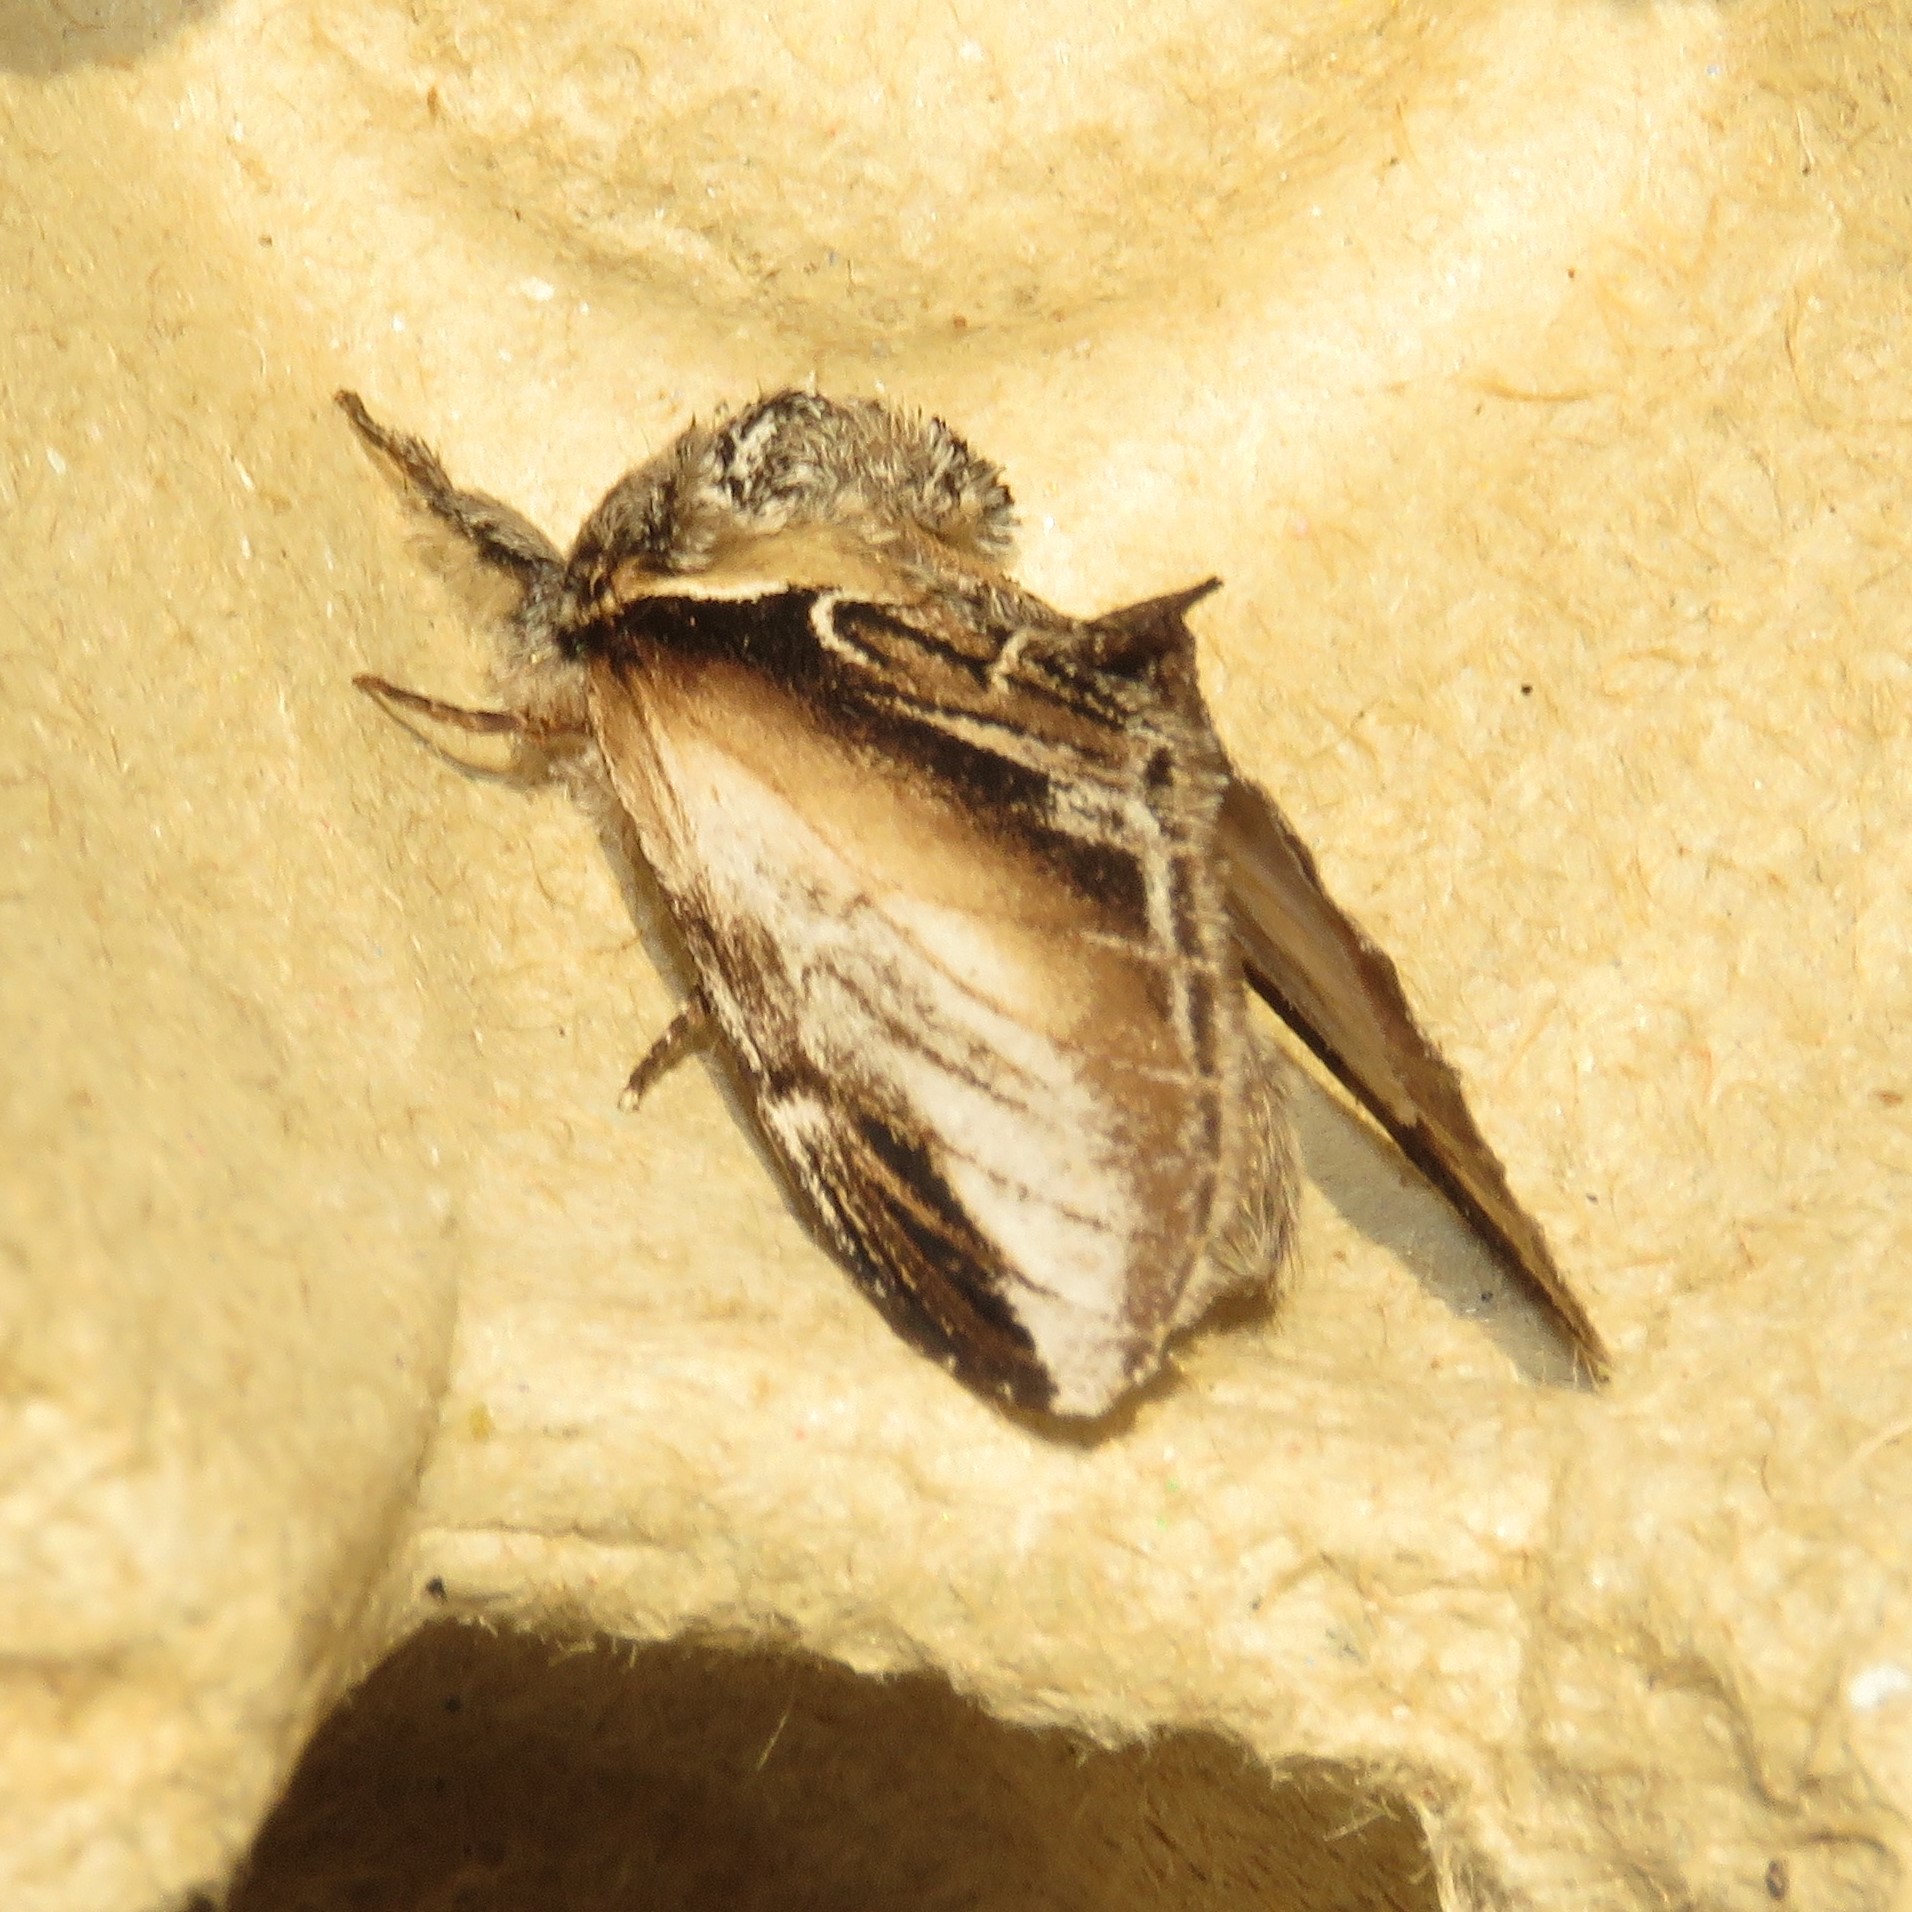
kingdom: Animalia
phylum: Arthropoda
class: Insecta
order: Lepidoptera
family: Notodontidae
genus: Pheosia
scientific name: Pheosia rimosa
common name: Black-rimmed prominent
